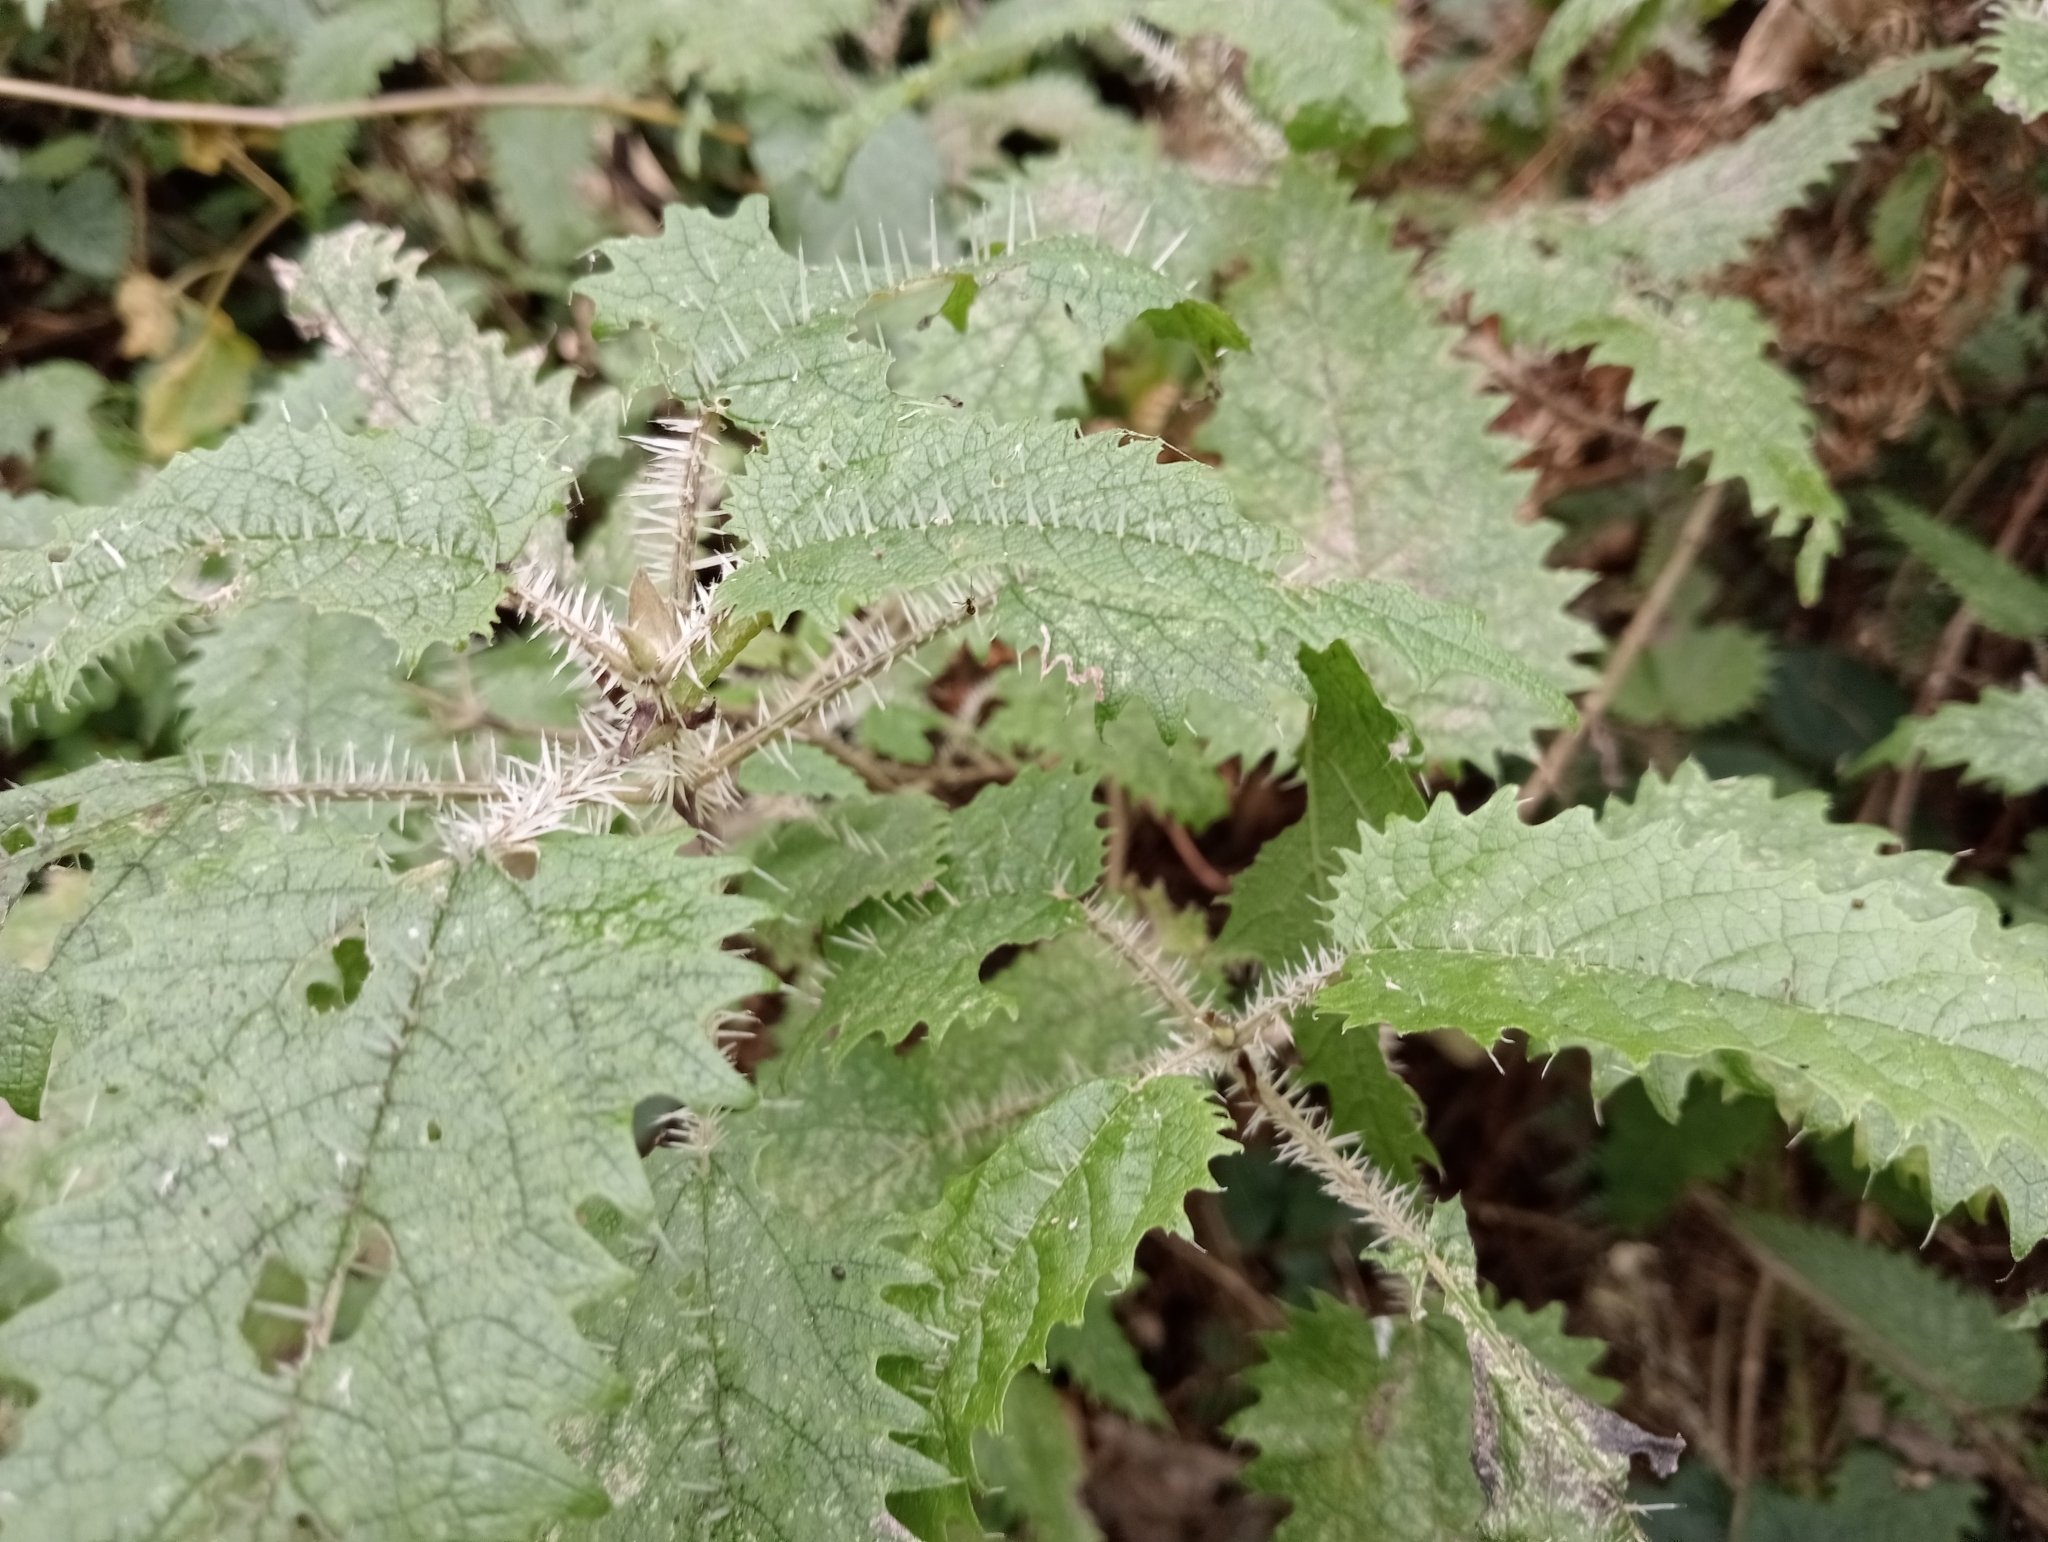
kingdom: Plantae
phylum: Tracheophyta
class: Magnoliopsida
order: Rosales
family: Urticaceae
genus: Urtica
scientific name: Urtica ferox
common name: Tree nettle
